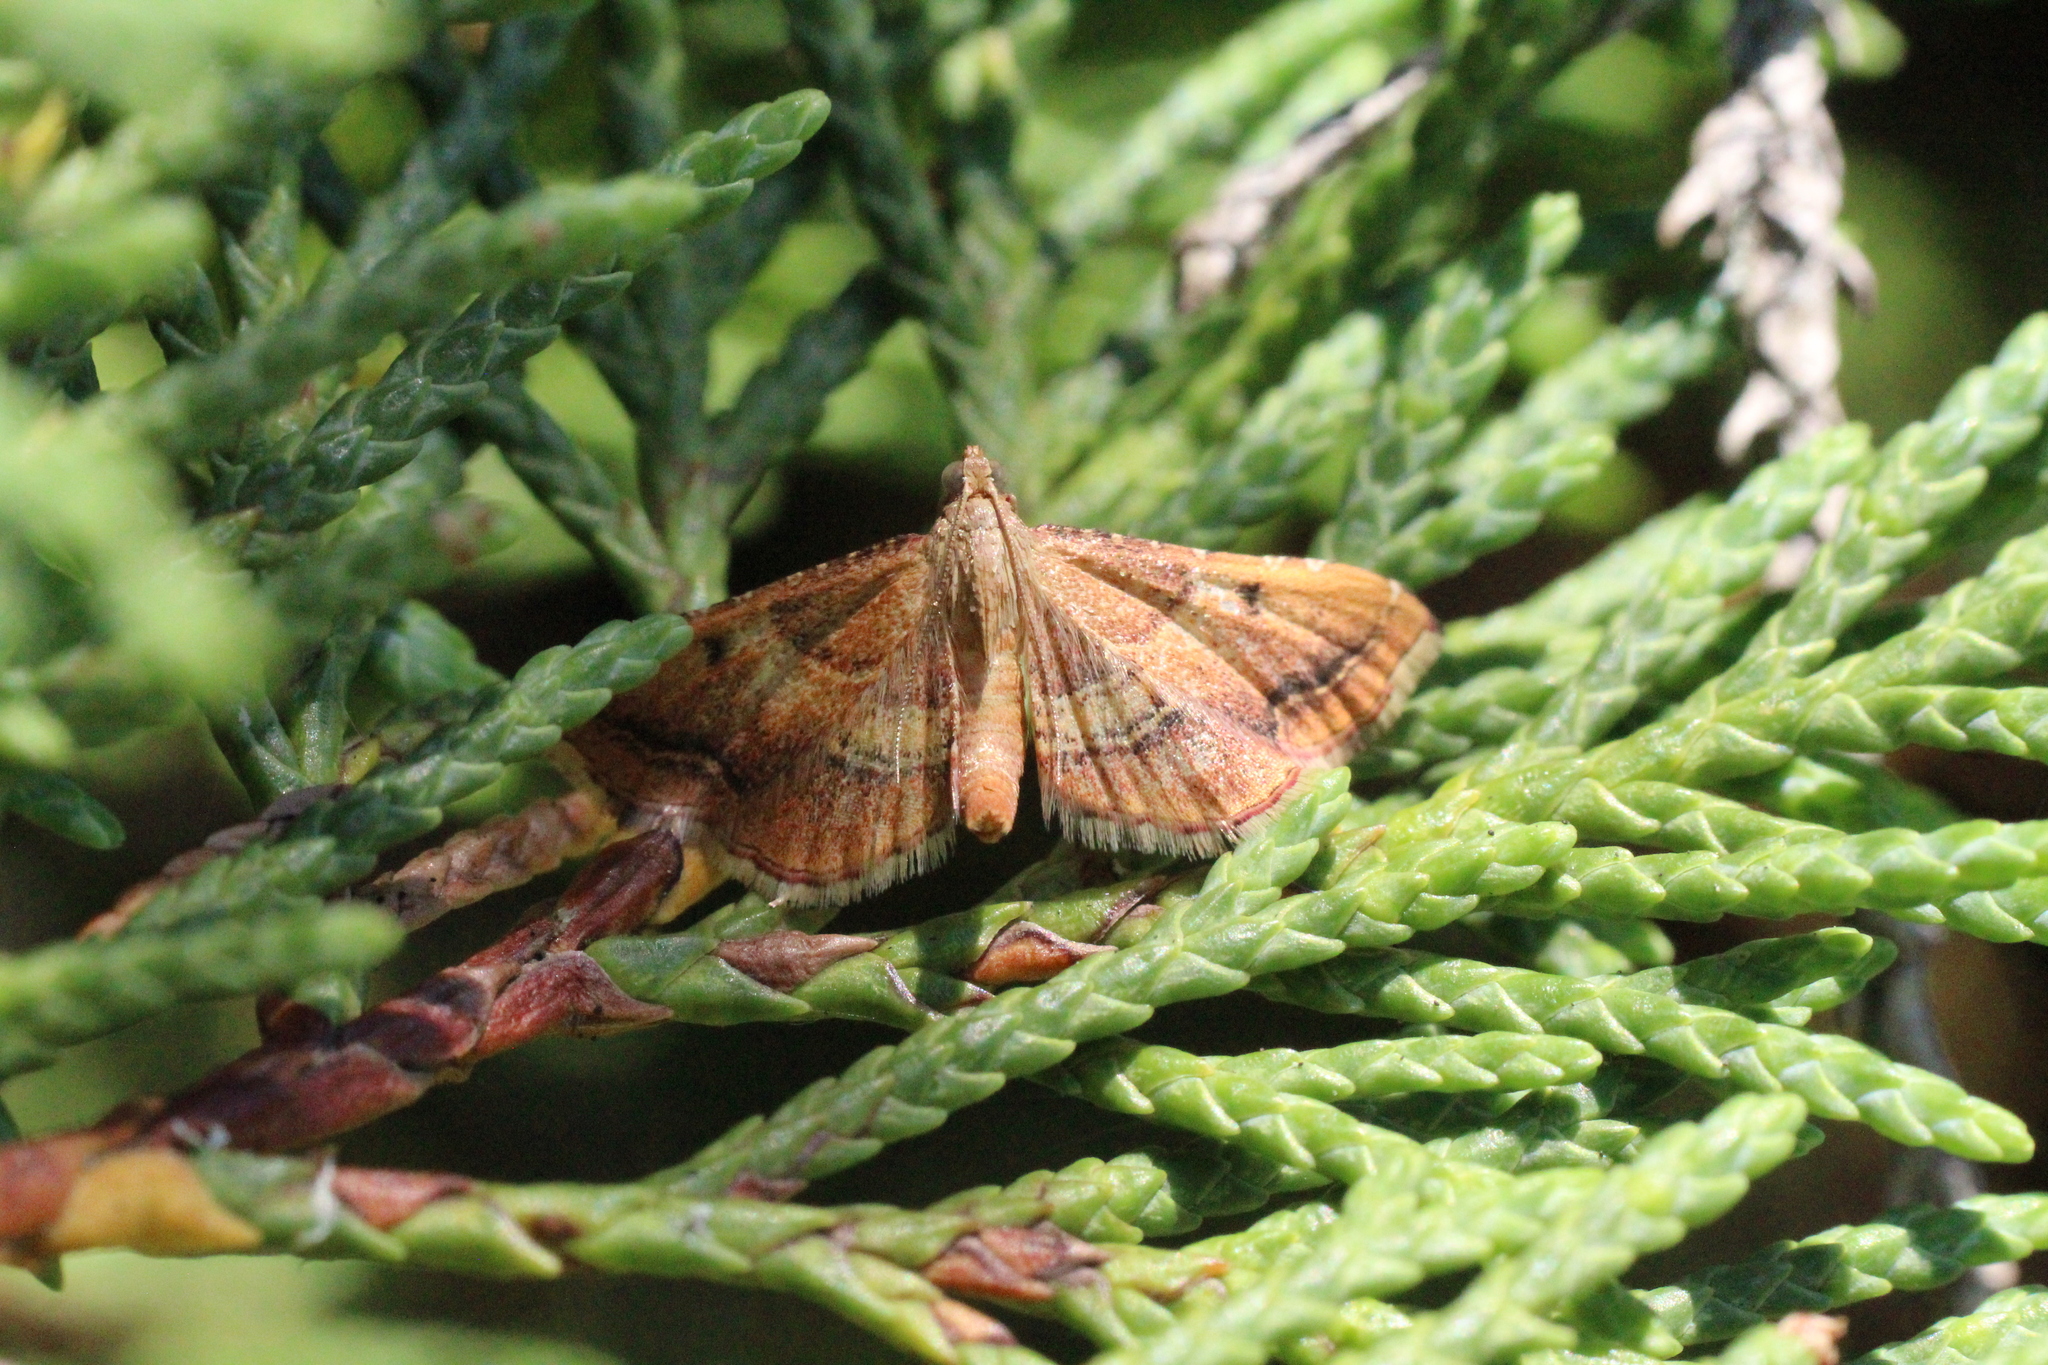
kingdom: Animalia
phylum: Arthropoda
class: Insecta
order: Lepidoptera
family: Pyralidae
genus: Endotricha
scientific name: Endotricha flammealis
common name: Rosy tabby
